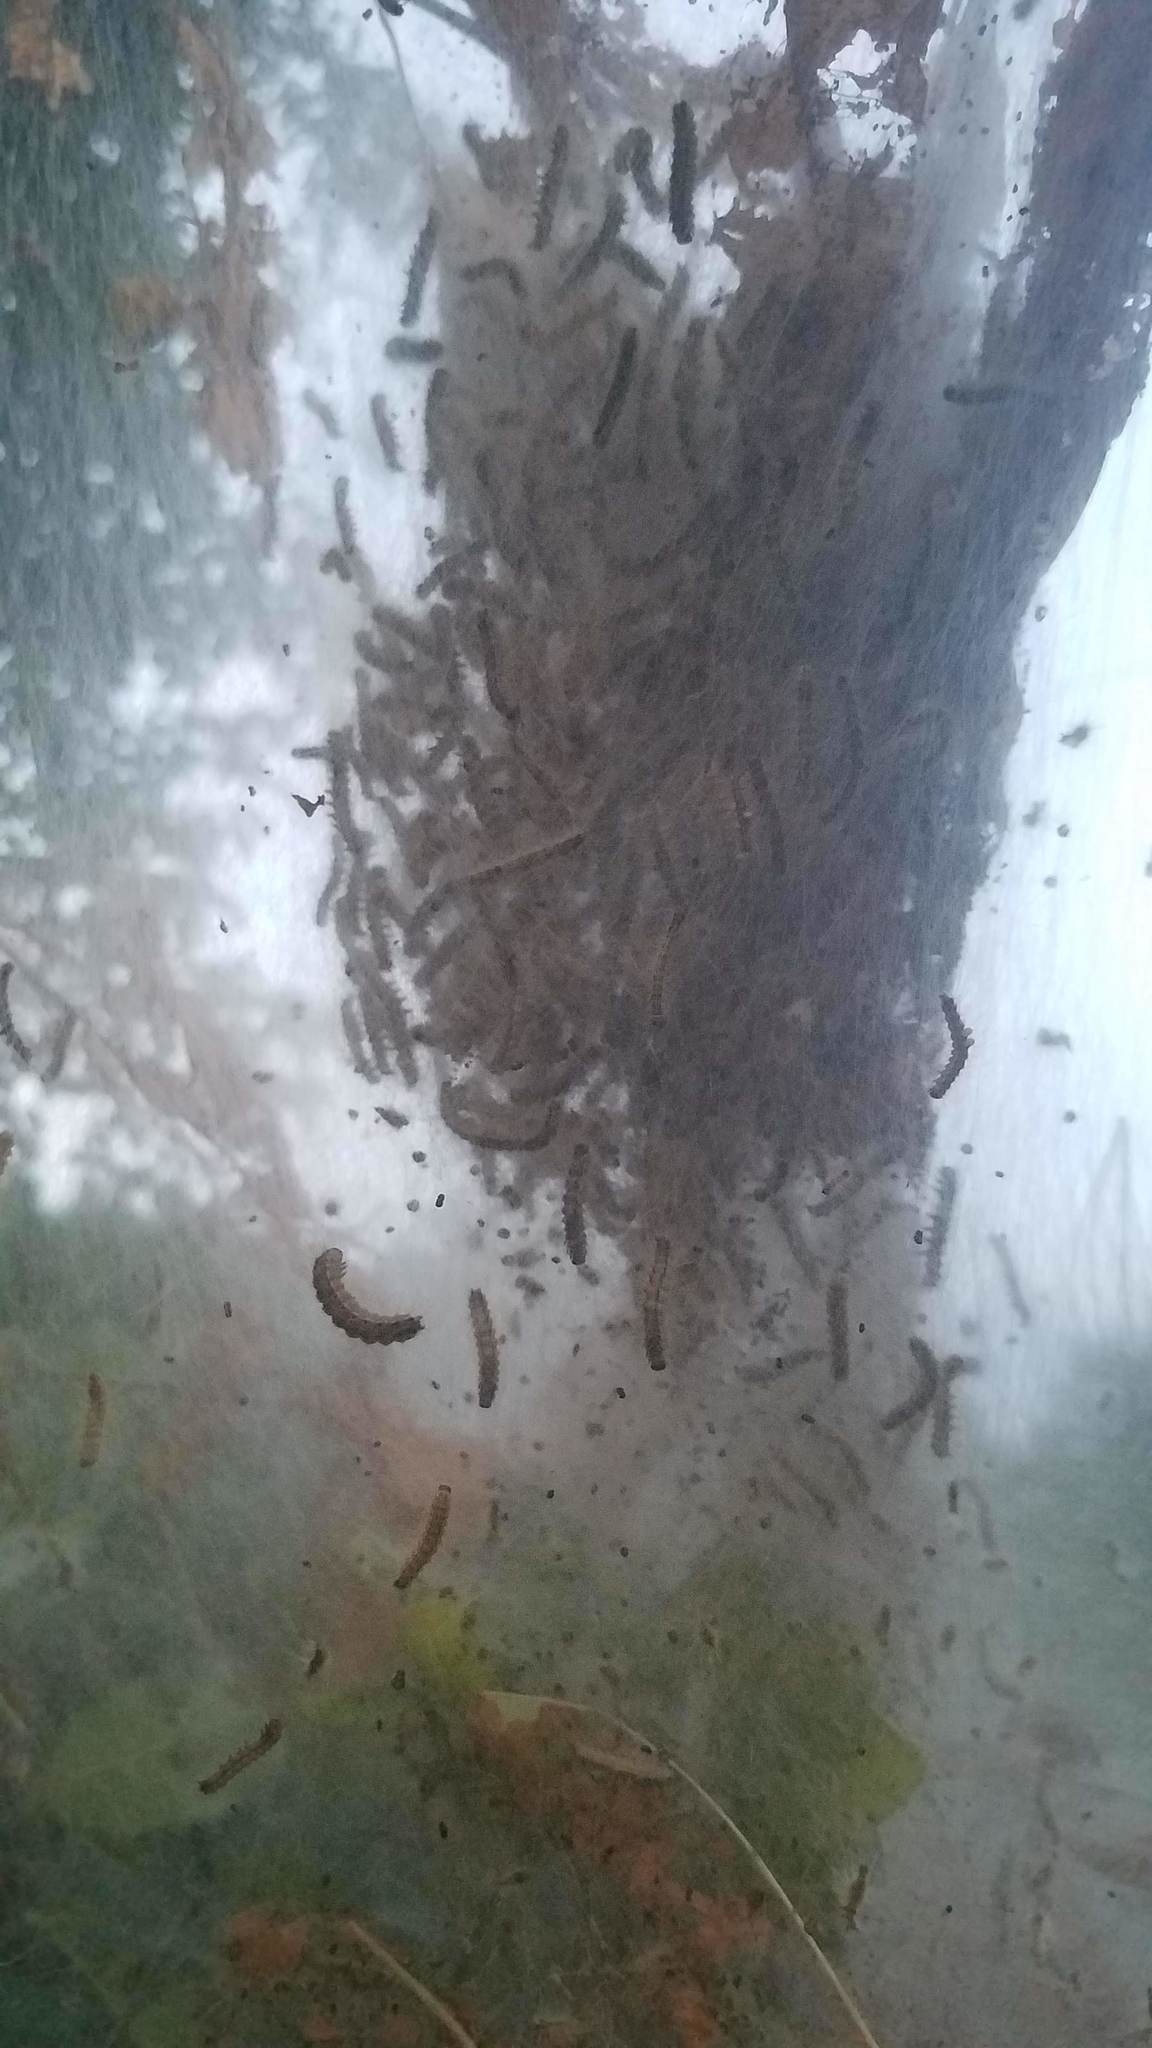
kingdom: Animalia
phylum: Arthropoda
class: Insecta
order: Lepidoptera
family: Erebidae
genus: Hyphantria
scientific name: Hyphantria cunea
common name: American white moth
